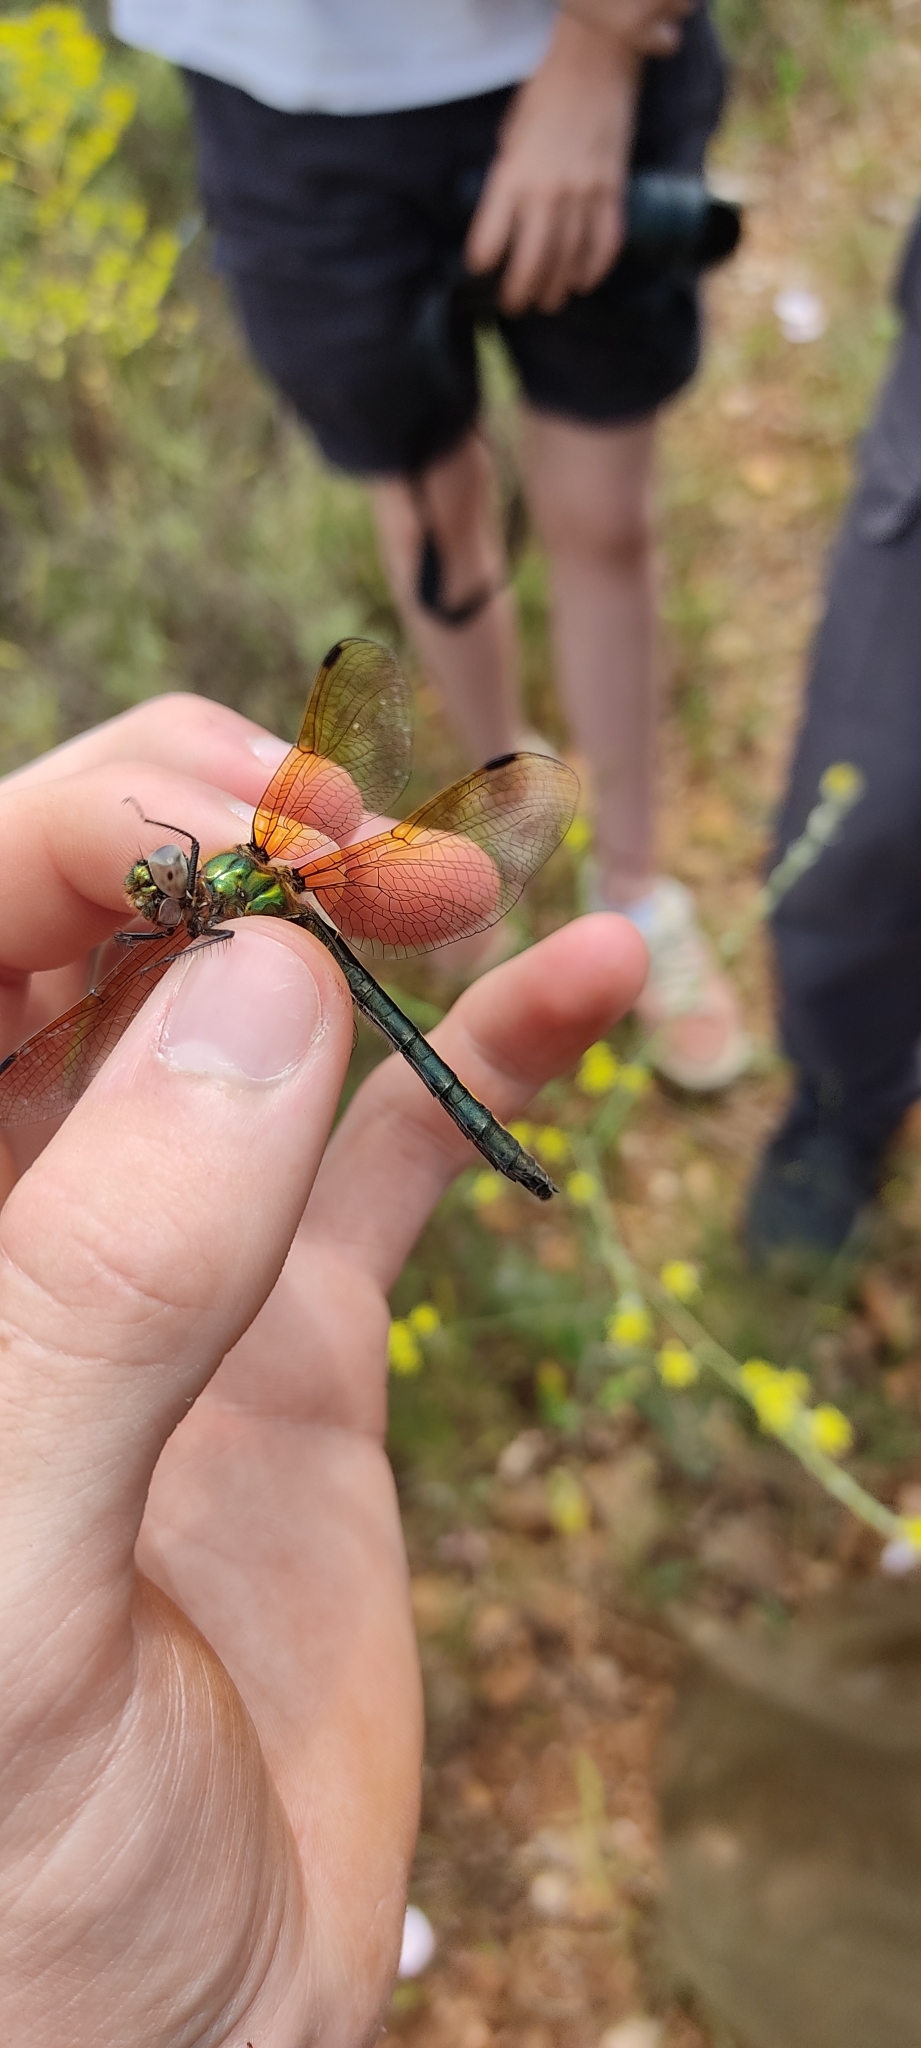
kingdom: Animalia
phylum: Arthropoda
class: Insecta
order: Odonata
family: Corduliidae
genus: Oxygastra
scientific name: Oxygastra curtisii
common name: Orange-spotted emerald
